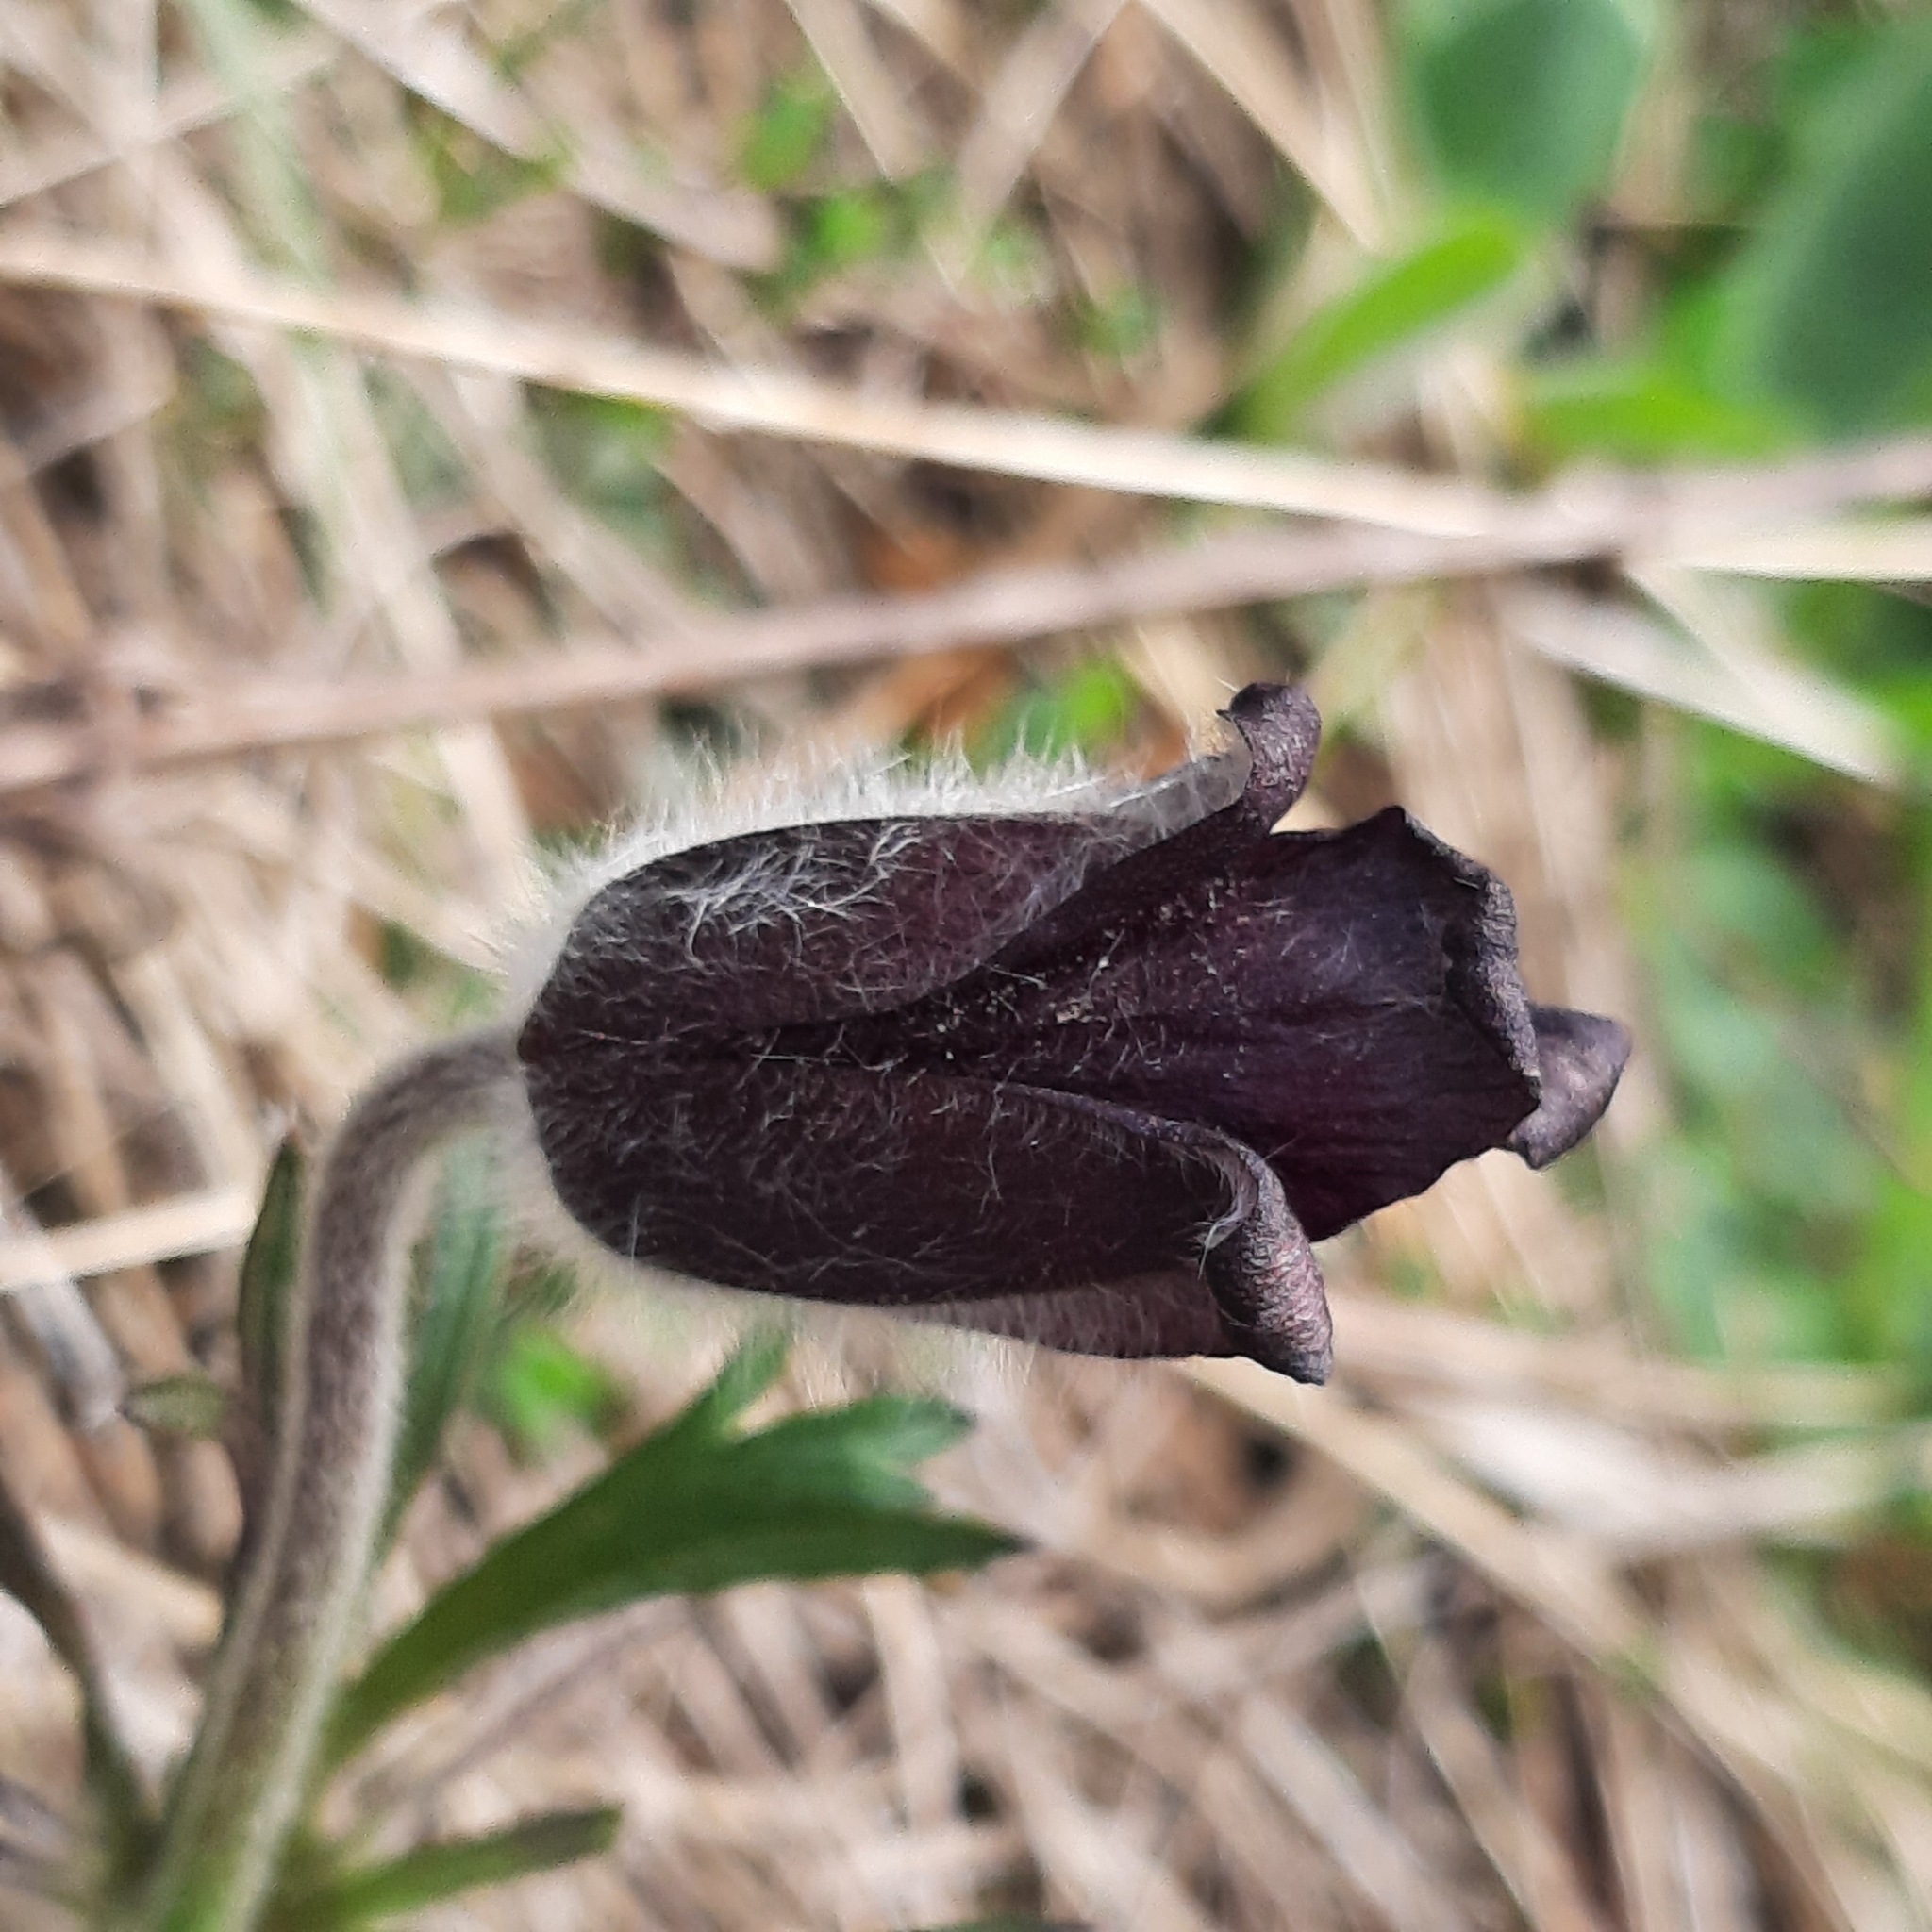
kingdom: Plantae
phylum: Tracheophyta
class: Magnoliopsida
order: Ranunculales
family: Ranunculaceae
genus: Pulsatilla
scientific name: Pulsatilla pratensis
